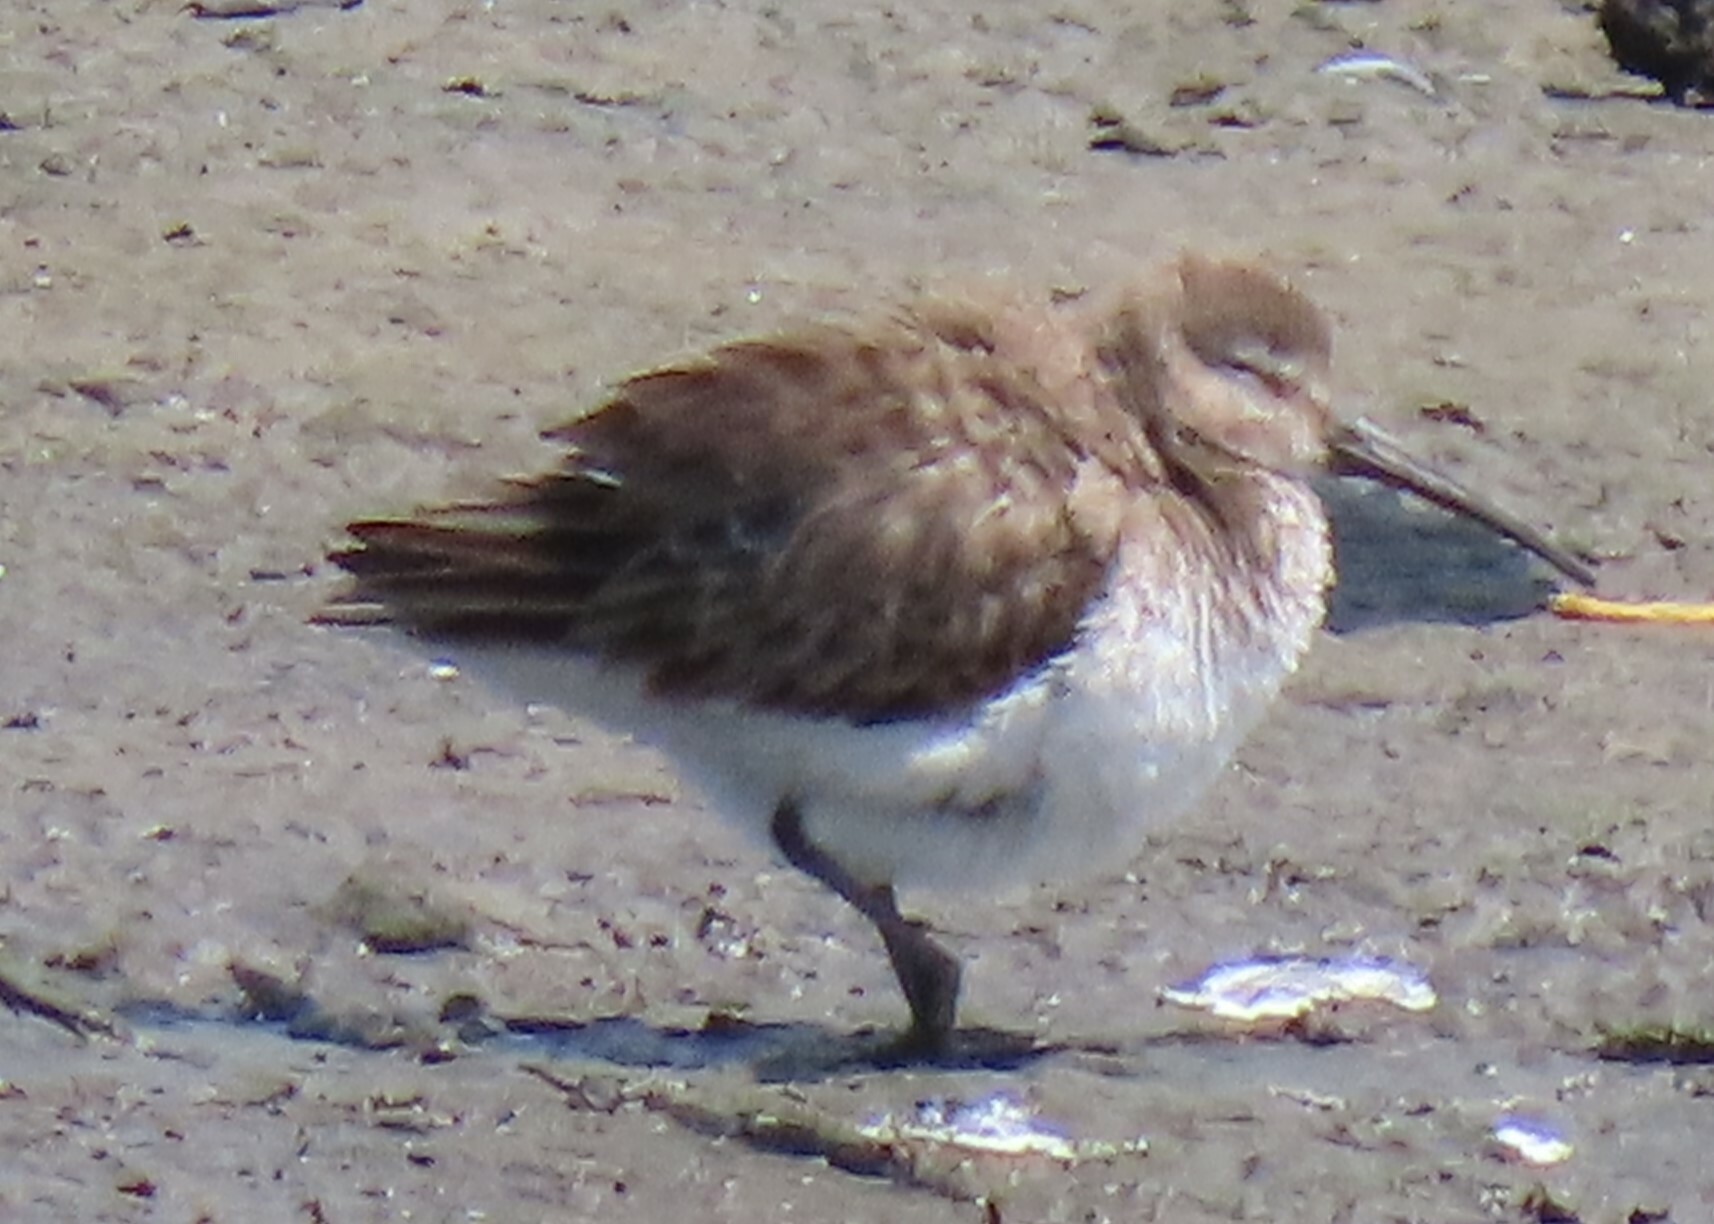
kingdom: Animalia
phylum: Chordata
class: Aves
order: Charadriiformes
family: Scolopacidae
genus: Calidris
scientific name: Calidris alpina
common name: Dunlin
